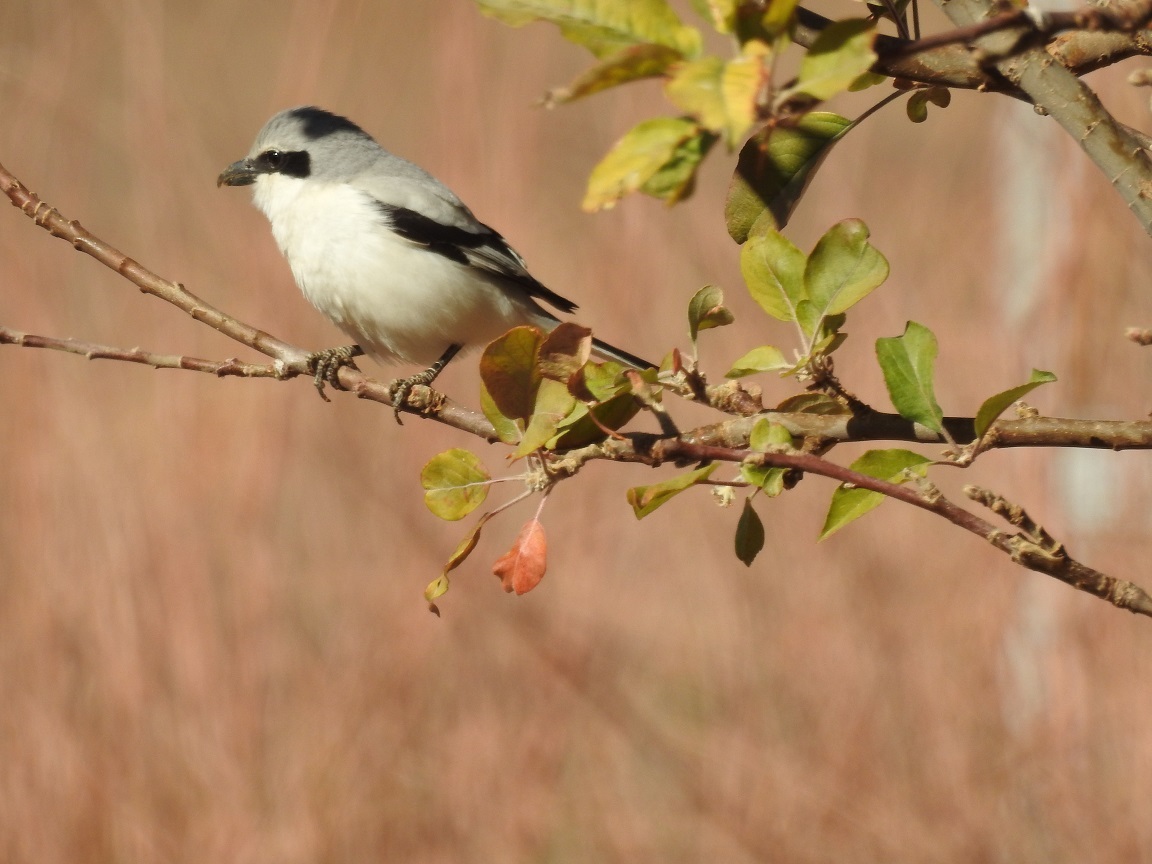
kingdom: Animalia
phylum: Chordata
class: Aves
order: Passeriformes
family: Laniidae
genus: Lanius
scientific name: Lanius excubitor
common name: Great grey shrike
